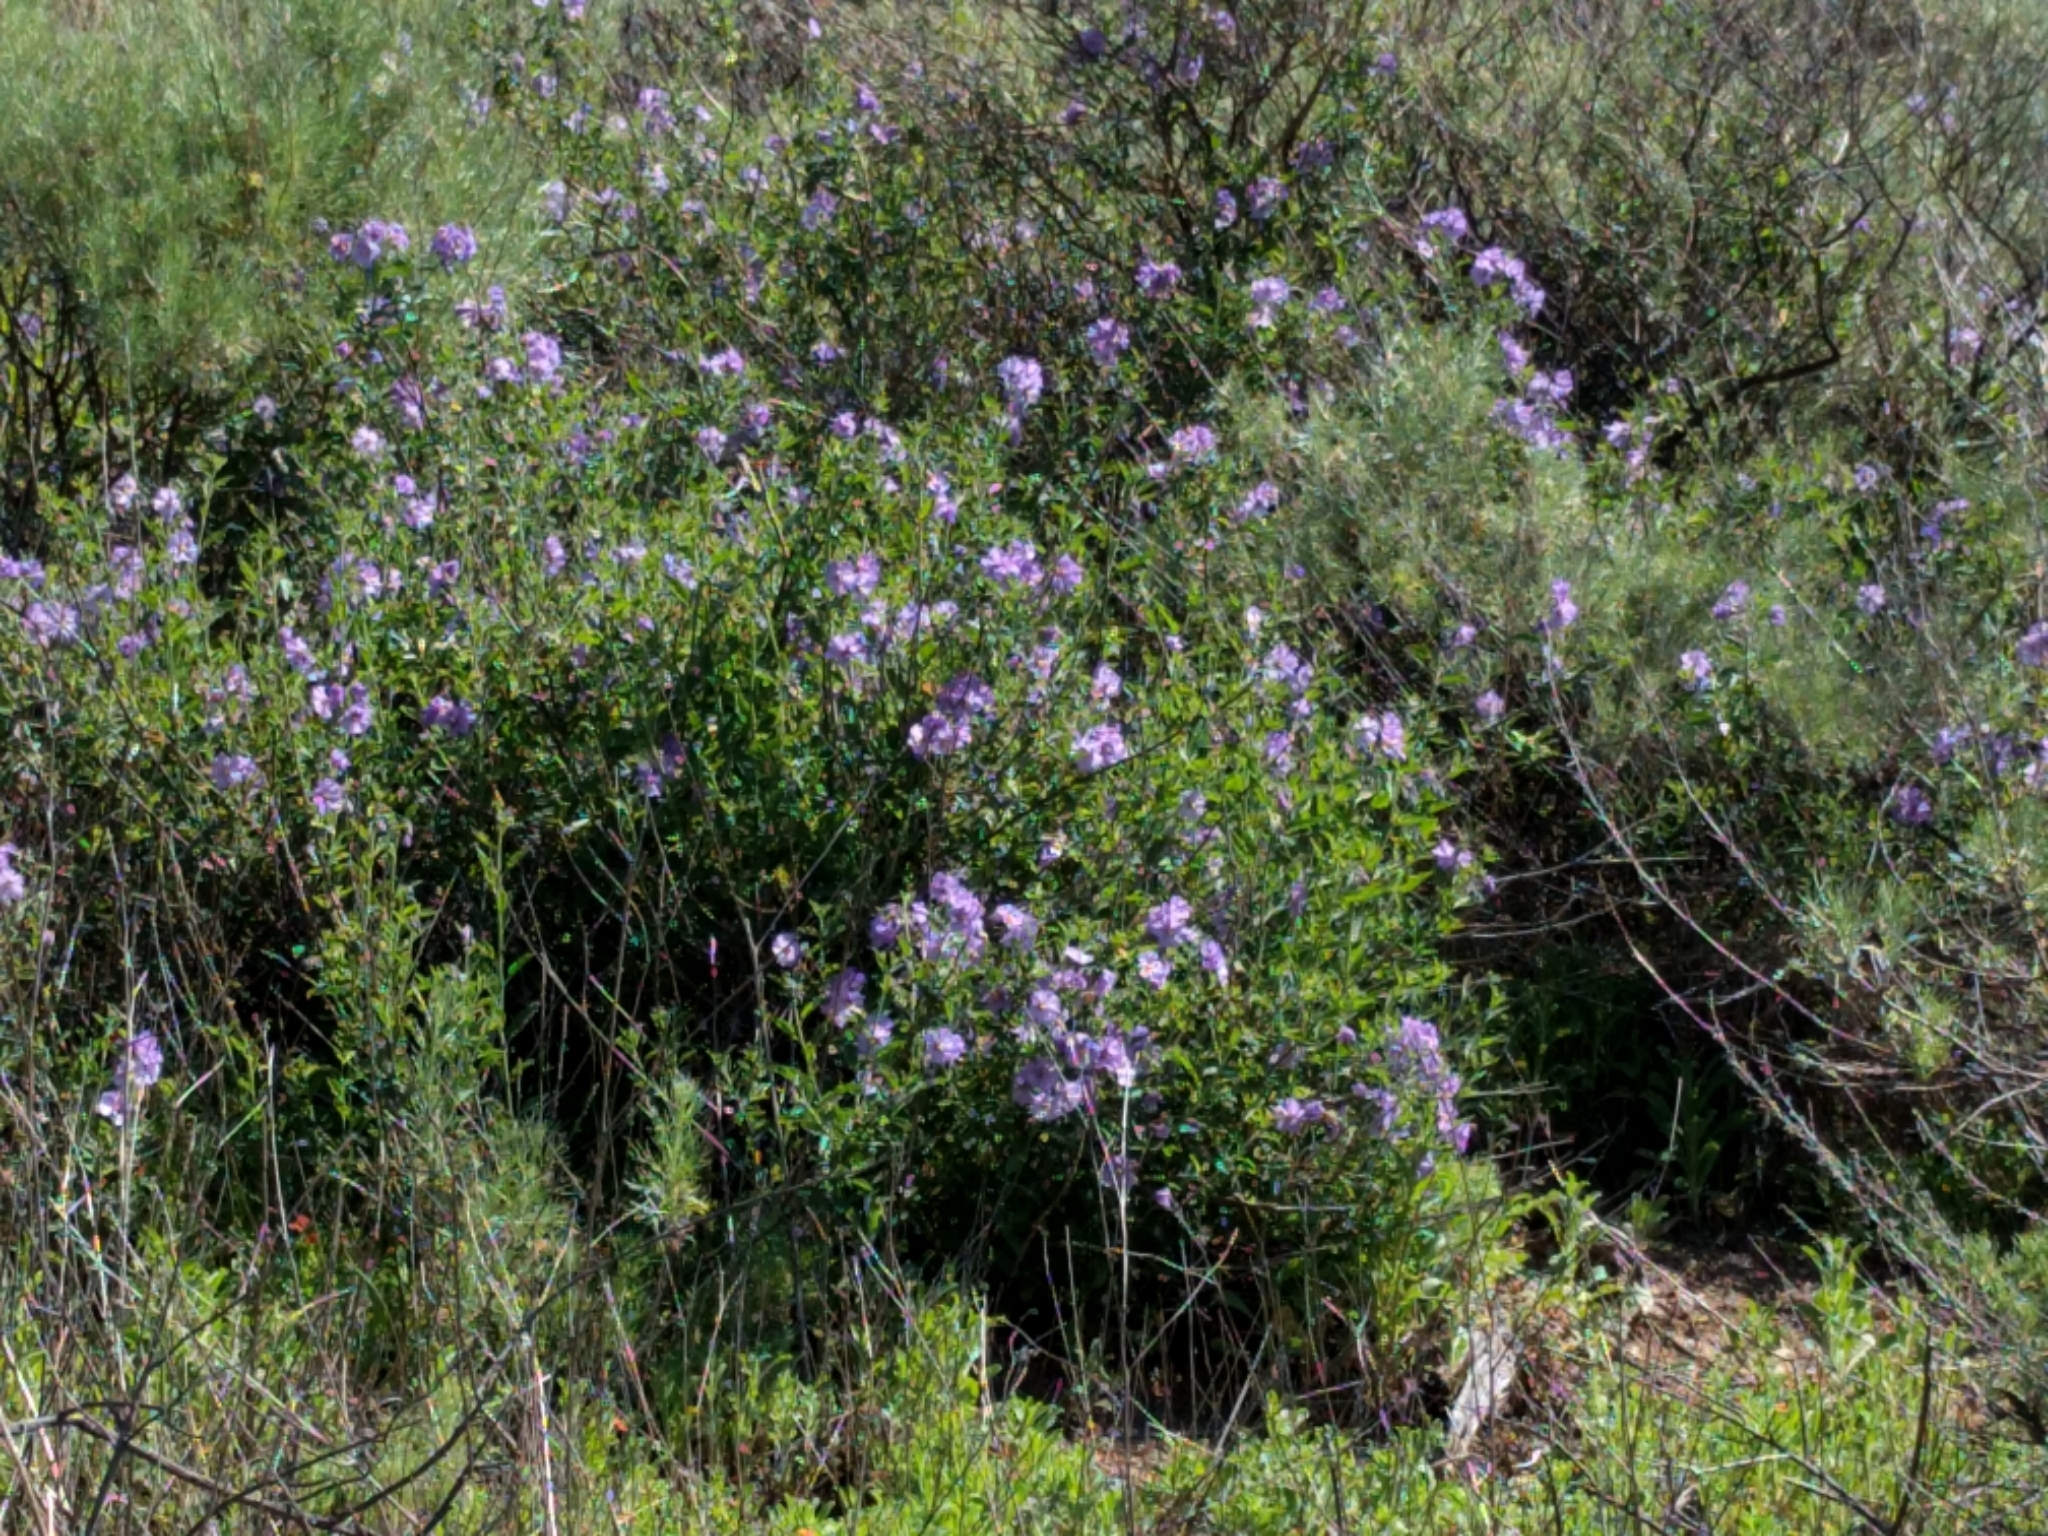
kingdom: Plantae
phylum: Tracheophyta
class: Magnoliopsida
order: Solanales
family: Solanaceae
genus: Solanum
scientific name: Solanum umbelliferum
